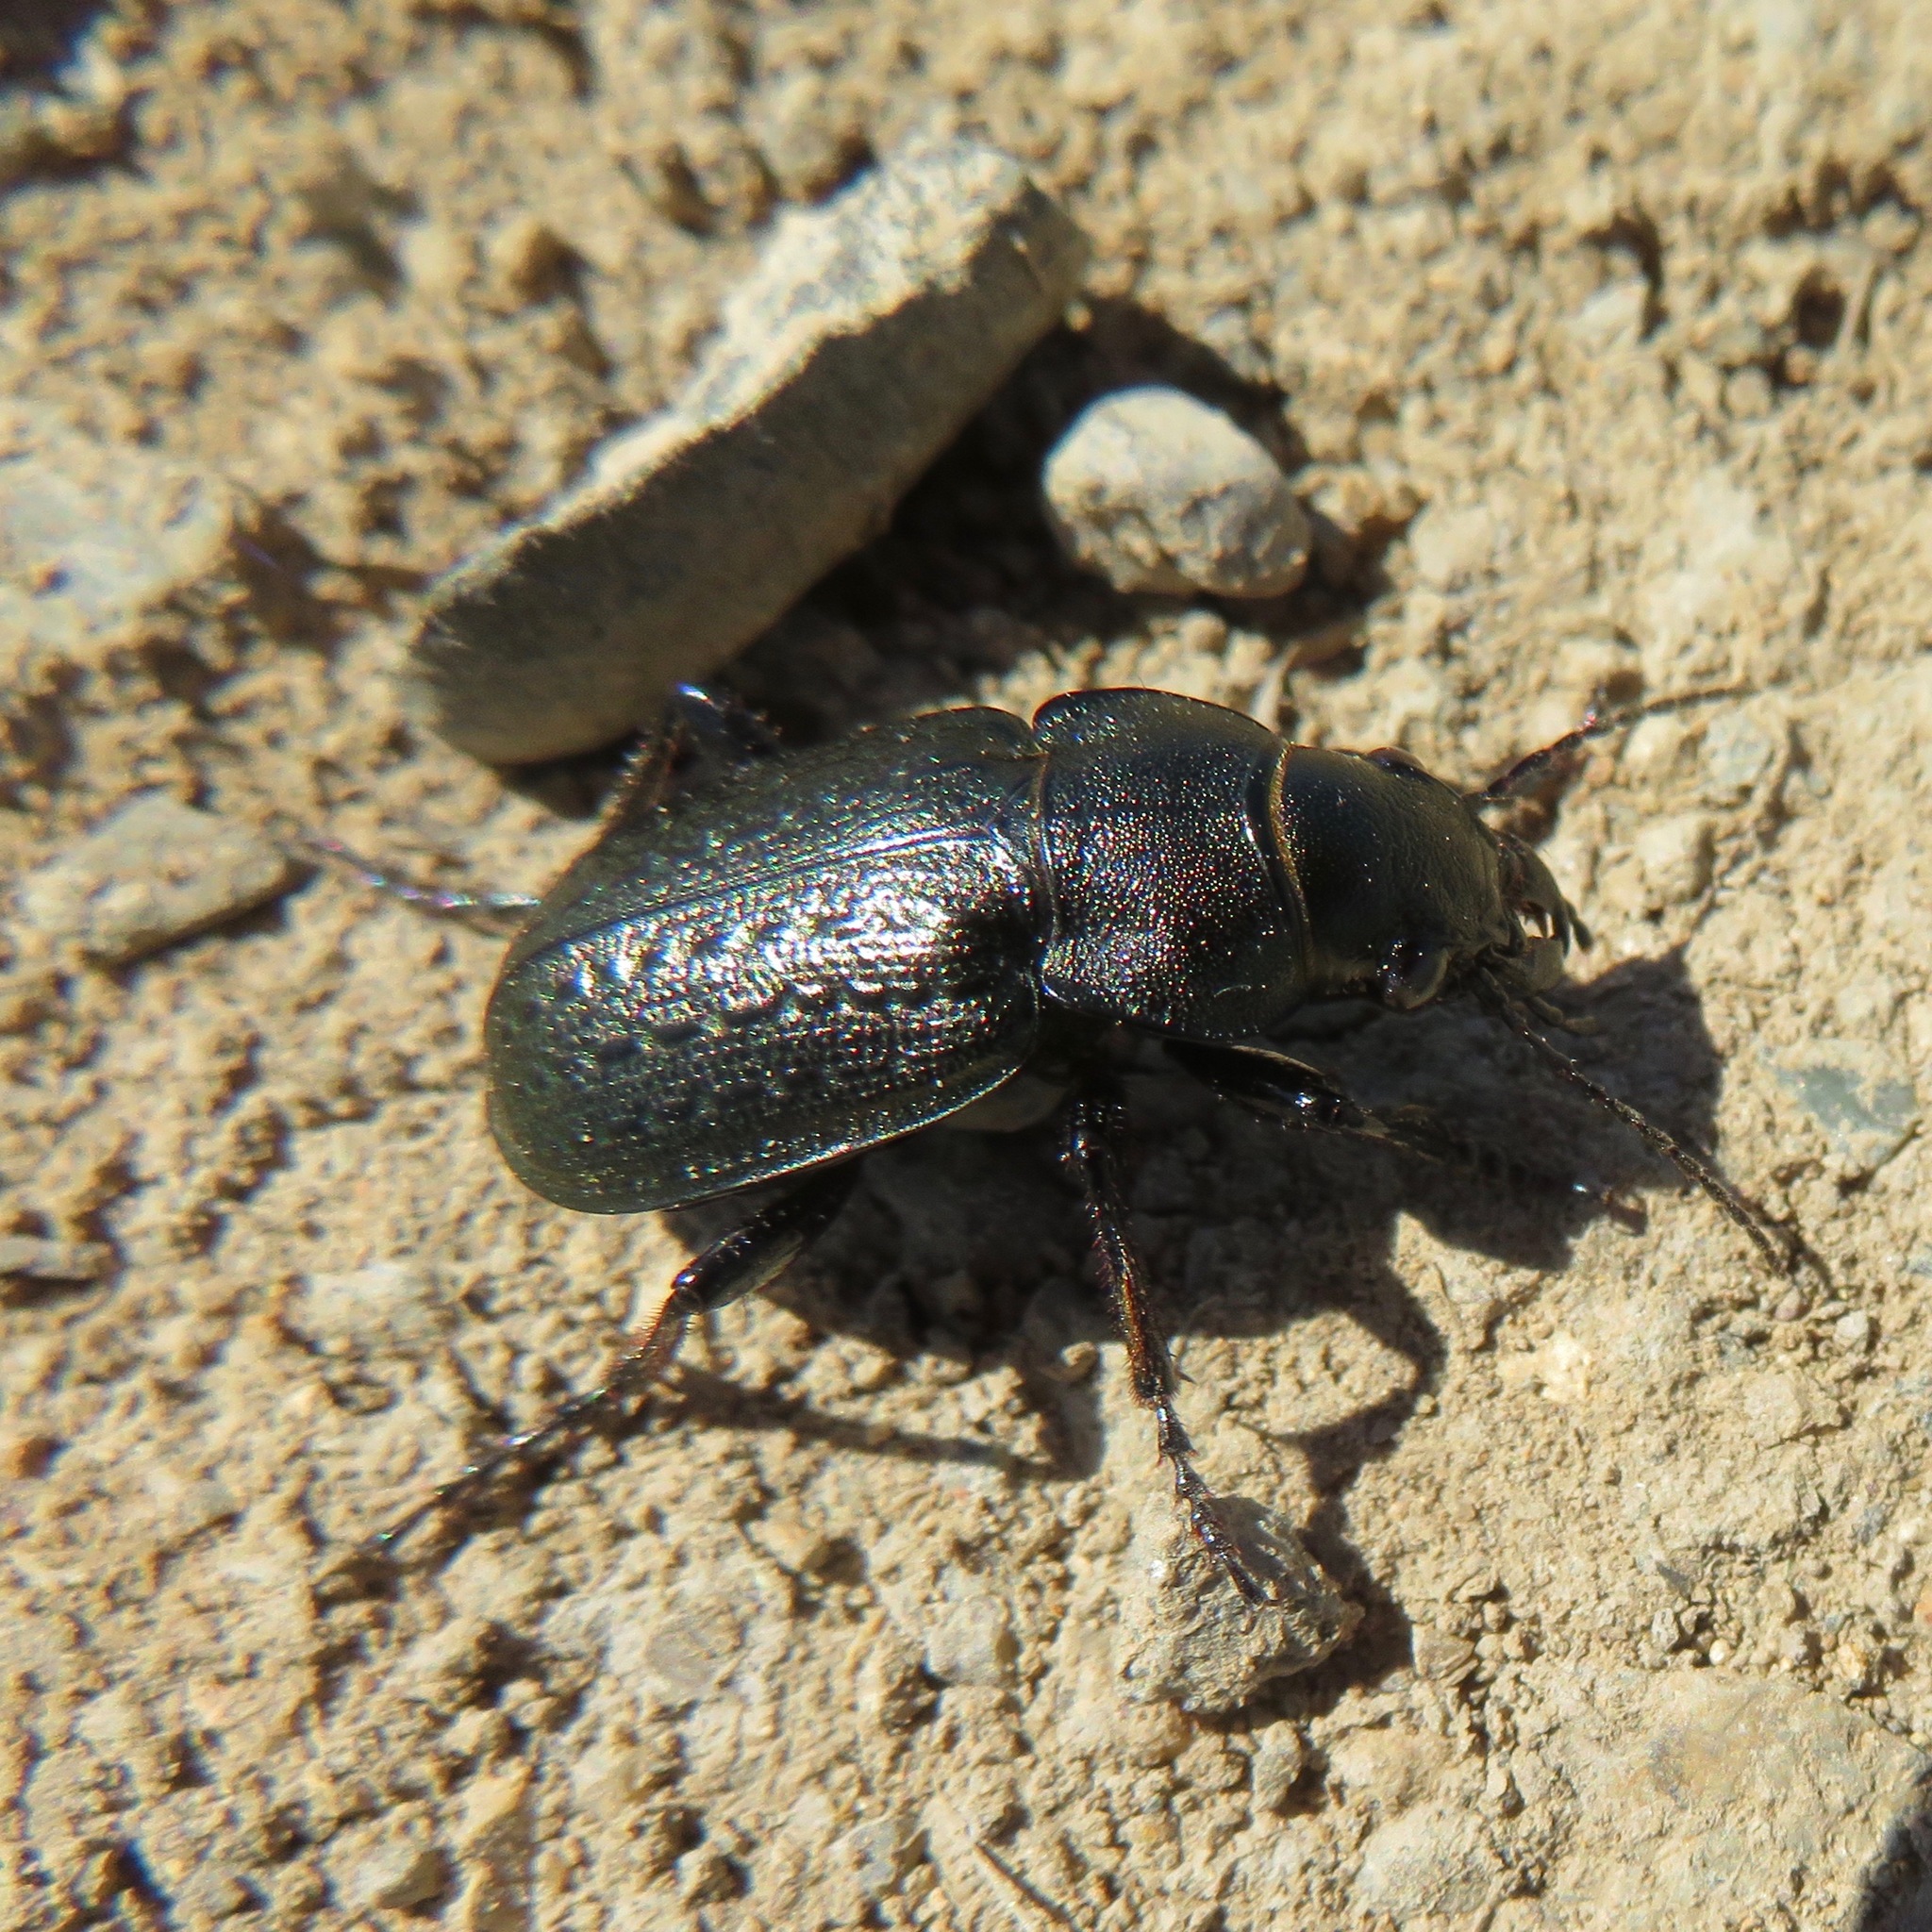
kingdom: Animalia
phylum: Arthropoda
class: Insecta
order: Coleoptera
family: Carabidae
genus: Calosoma
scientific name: Calosoma cancellatum
